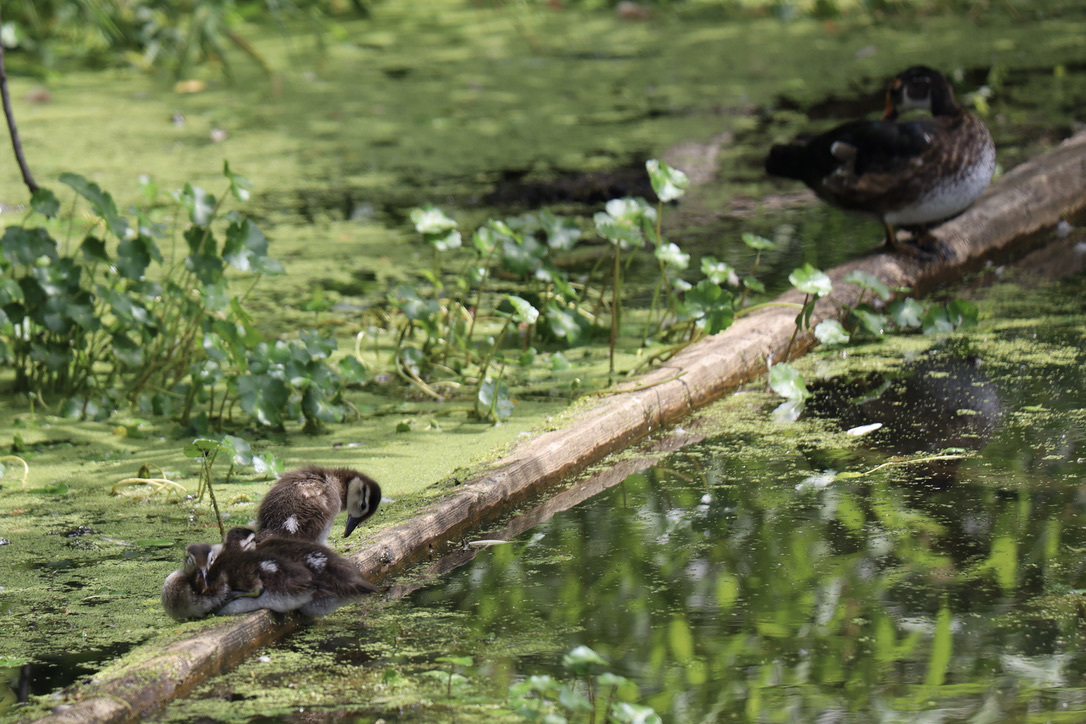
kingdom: Animalia
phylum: Chordata
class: Aves
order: Anseriformes
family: Anatidae
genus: Aix
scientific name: Aix sponsa
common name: Wood duck
